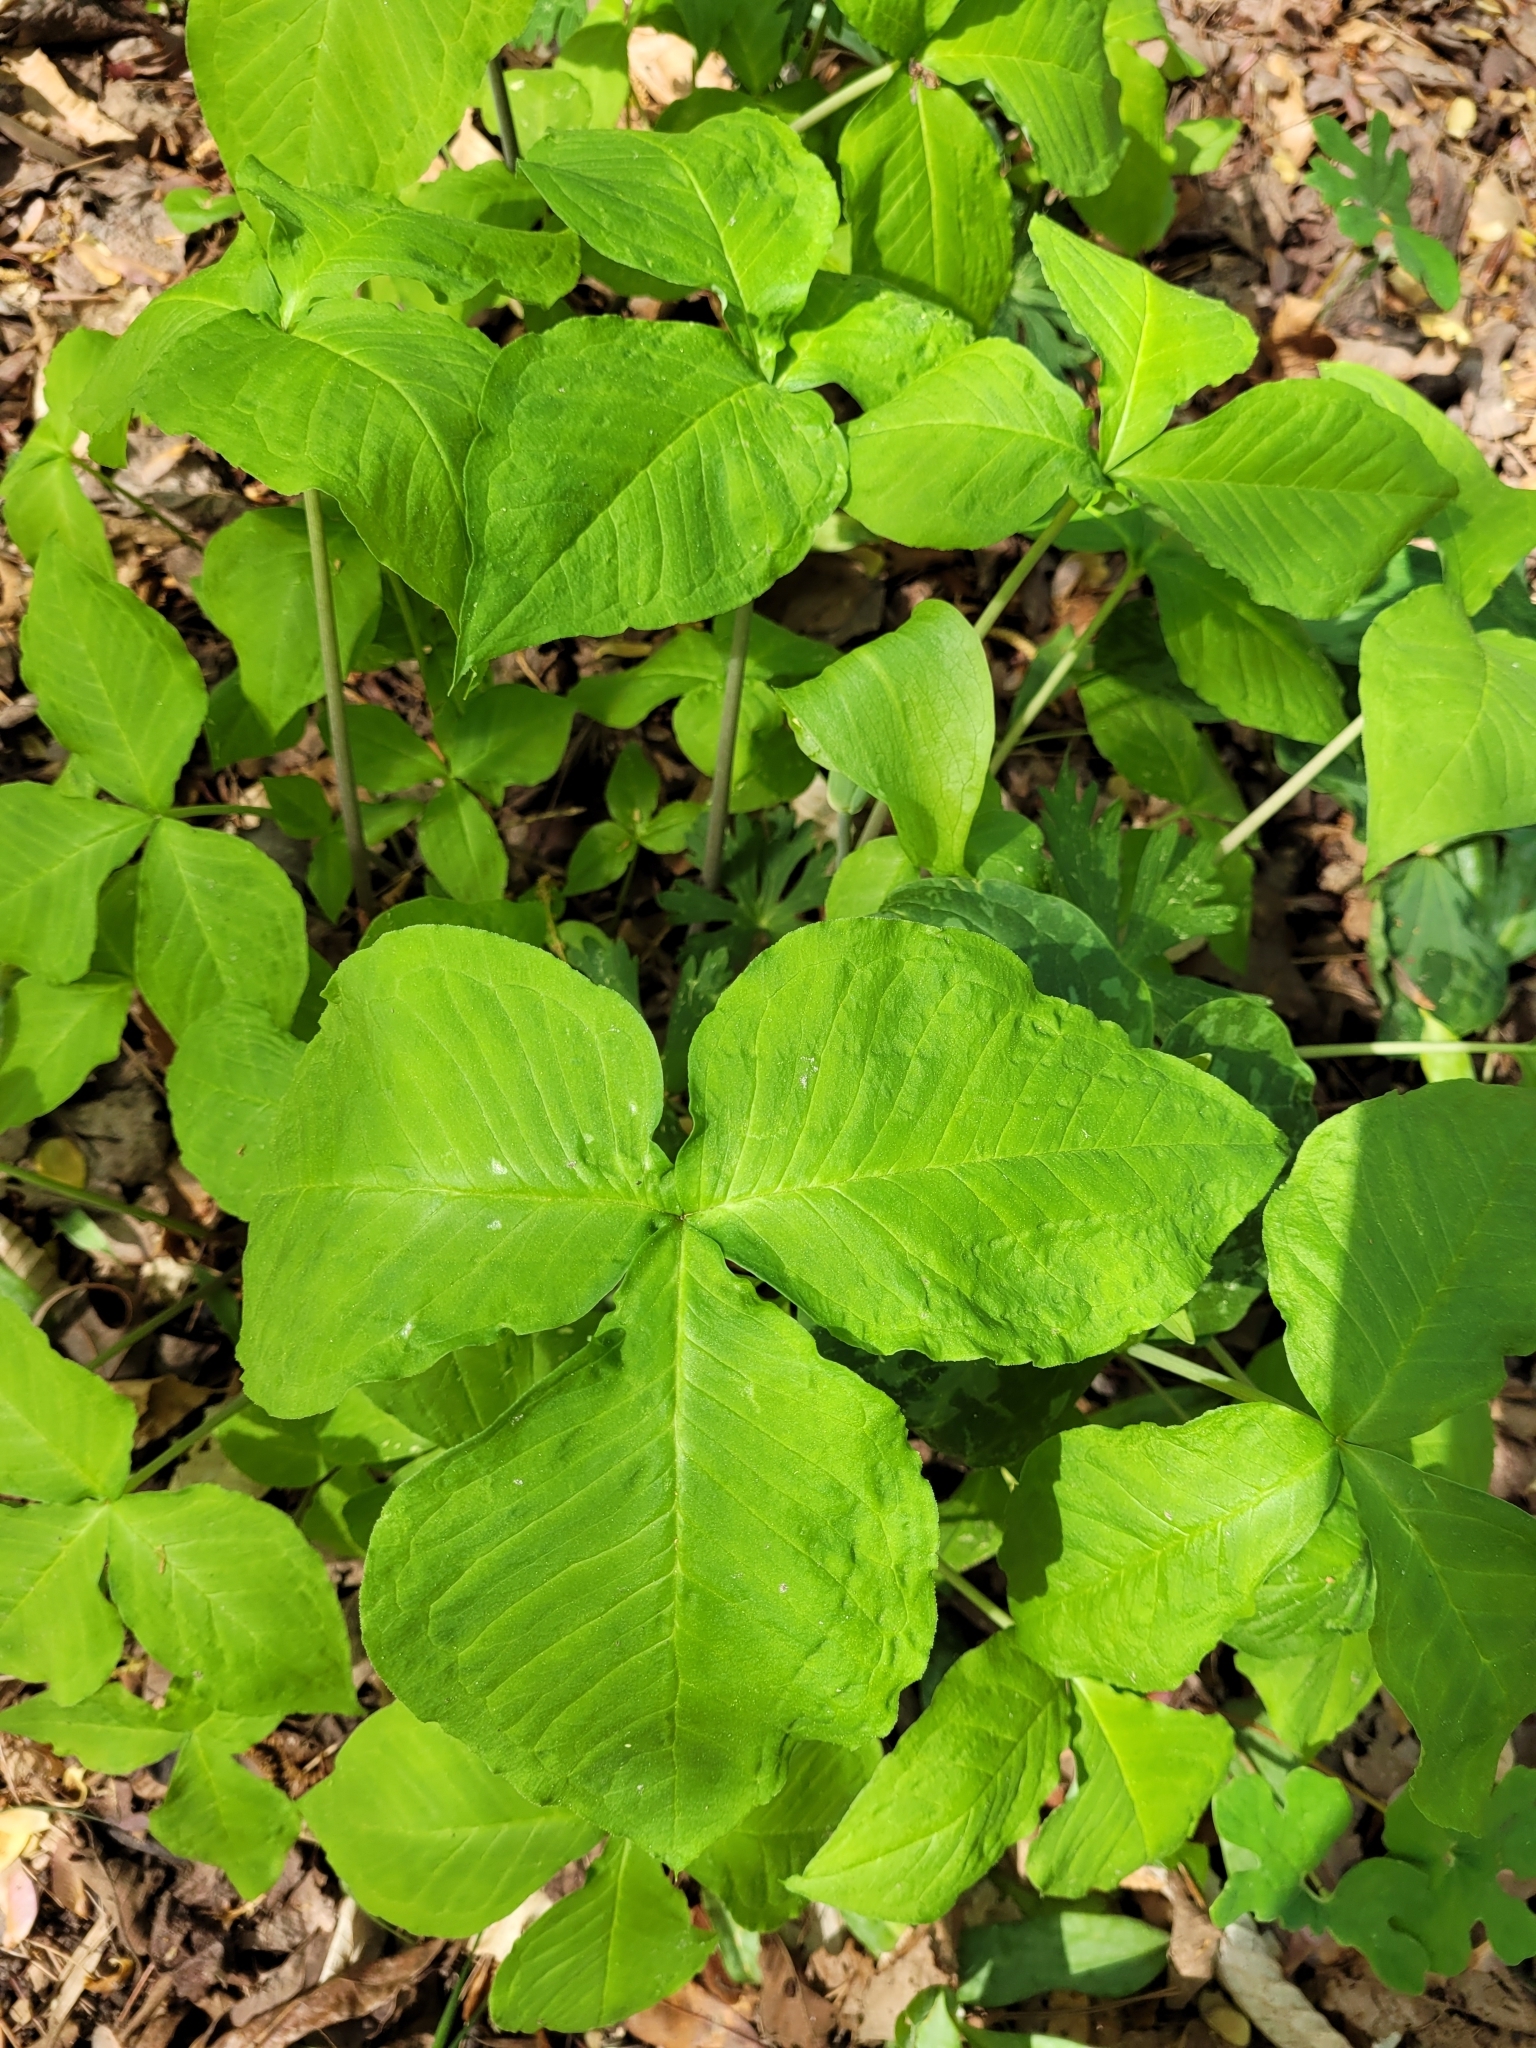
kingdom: Plantae
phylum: Tracheophyta
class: Liliopsida
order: Alismatales
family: Araceae
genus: Arisaema
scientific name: Arisaema triphyllum
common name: Jack-in-the-pulpit
